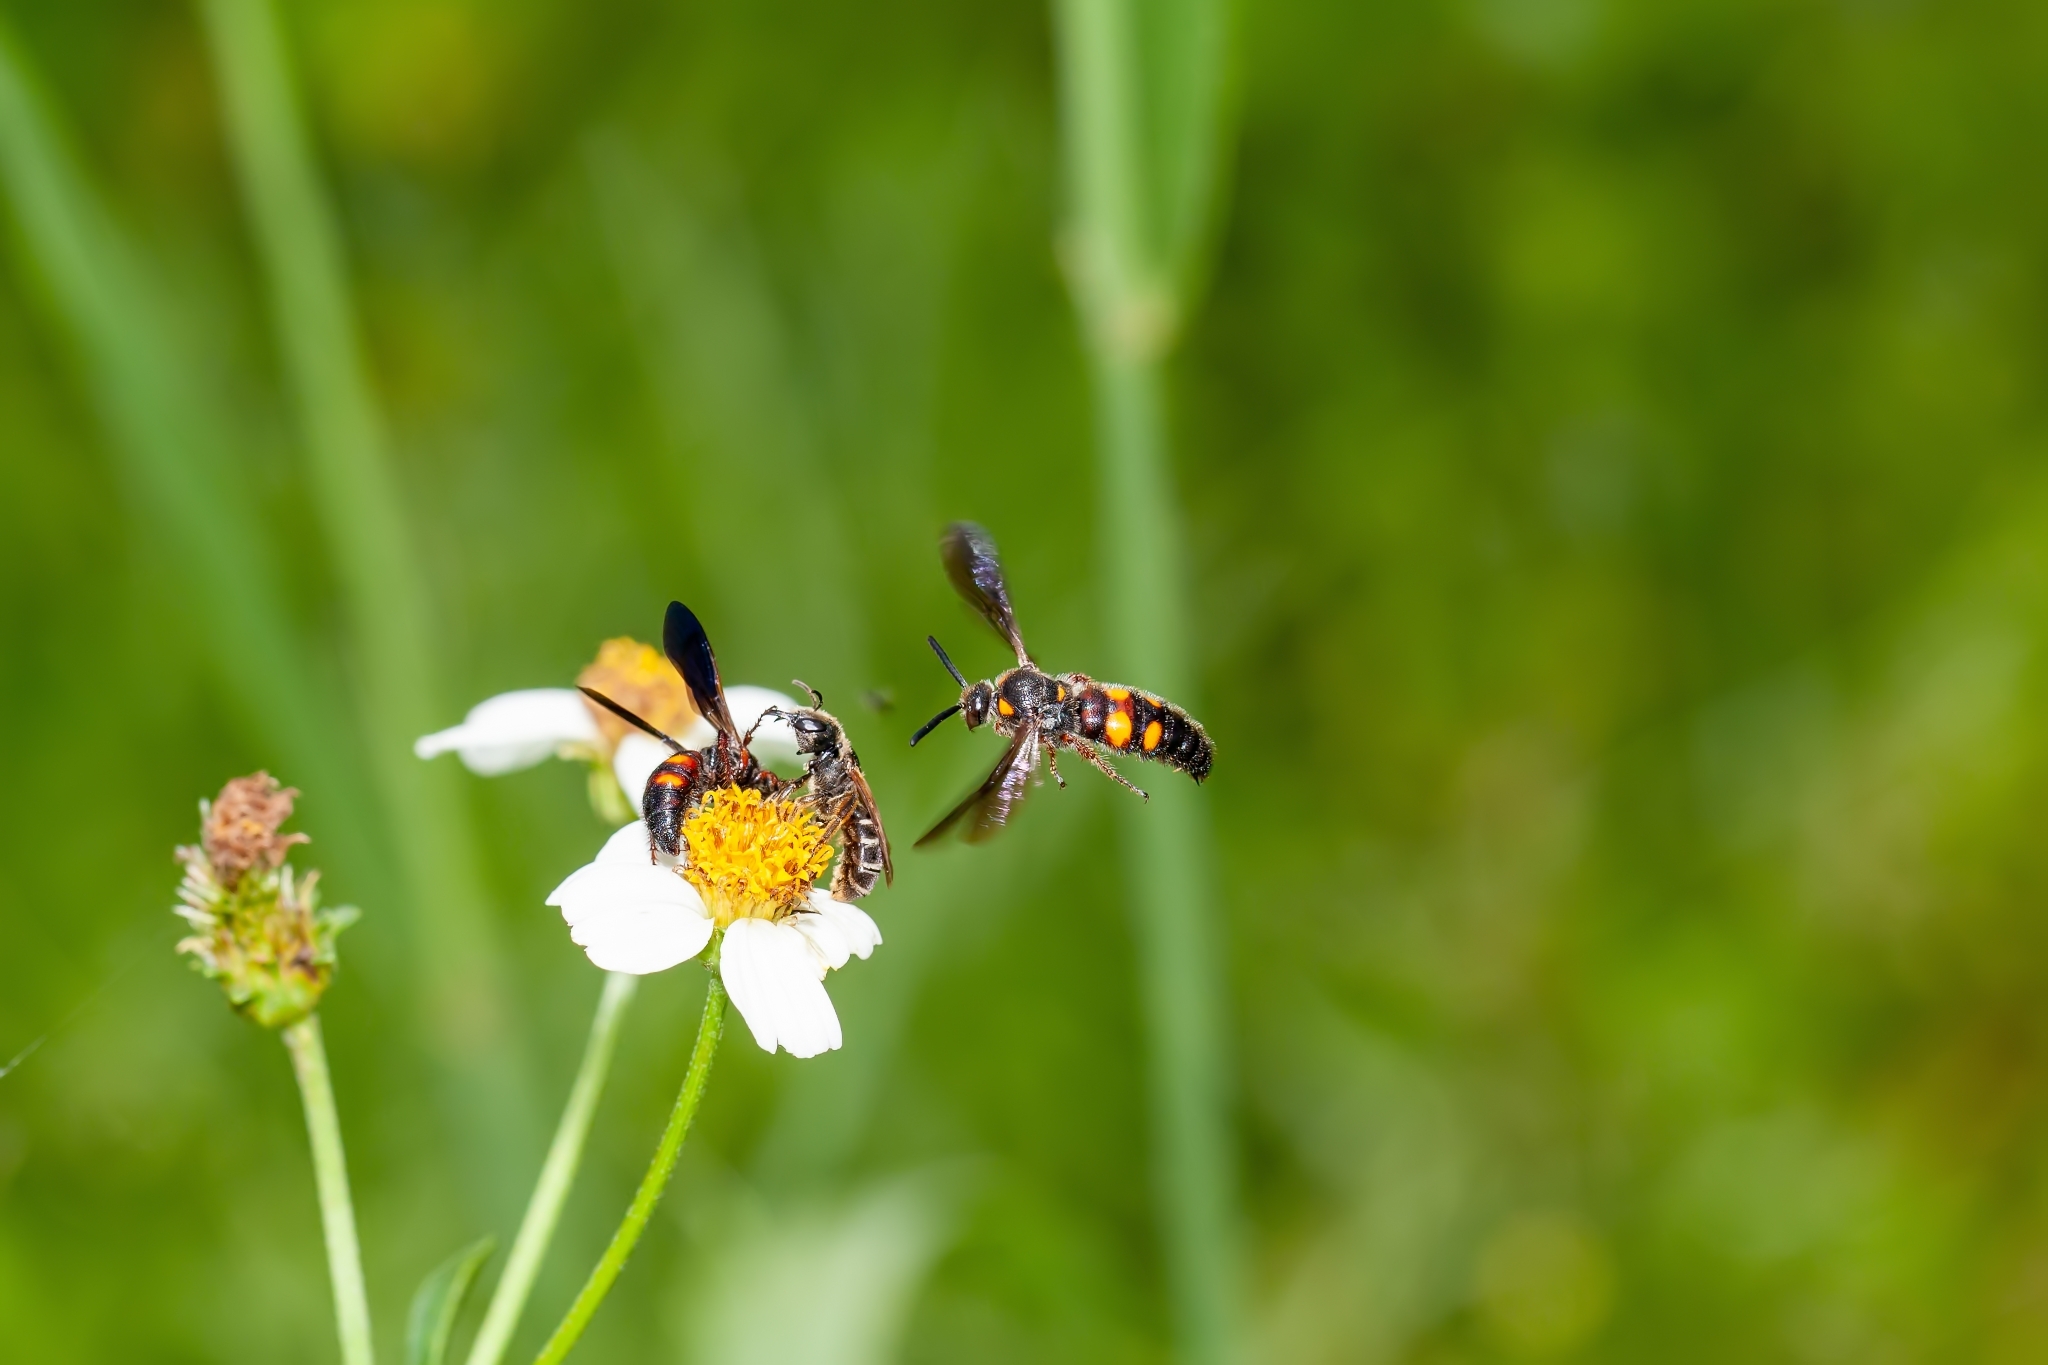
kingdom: Animalia
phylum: Arthropoda
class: Insecta
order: Hymenoptera
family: Scoliidae
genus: Scolia
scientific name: Scolia nobilitata
